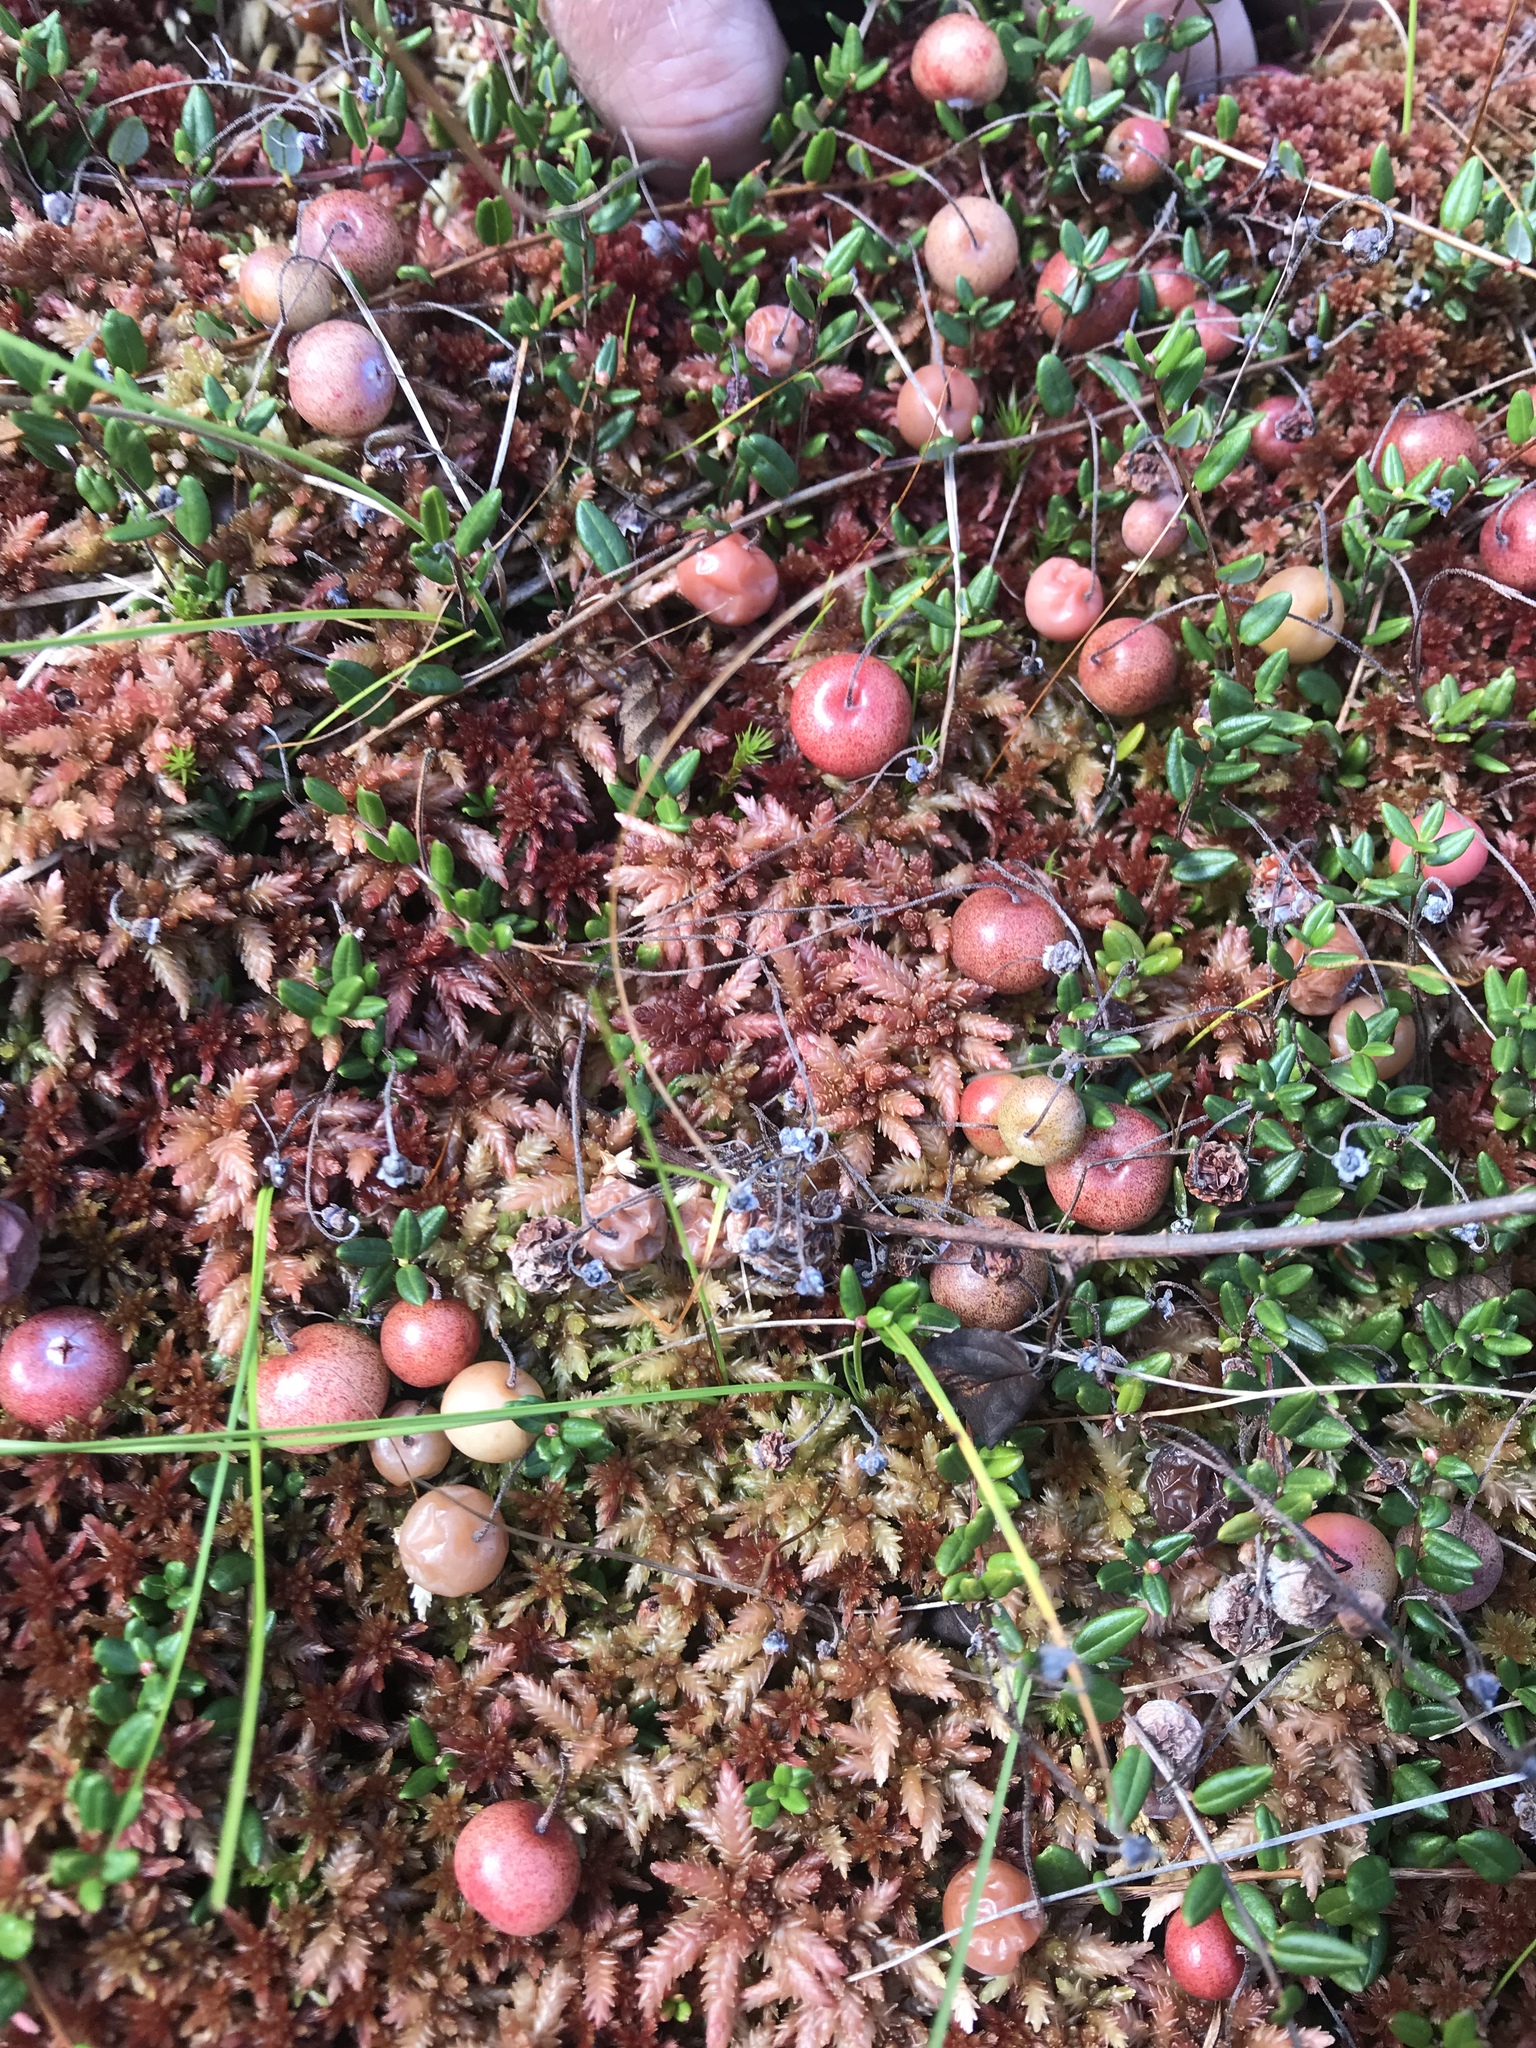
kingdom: Plantae
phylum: Tracheophyta
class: Magnoliopsida
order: Ericales
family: Ericaceae
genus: Vaccinium
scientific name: Vaccinium oxycoccos
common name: Cranberry
